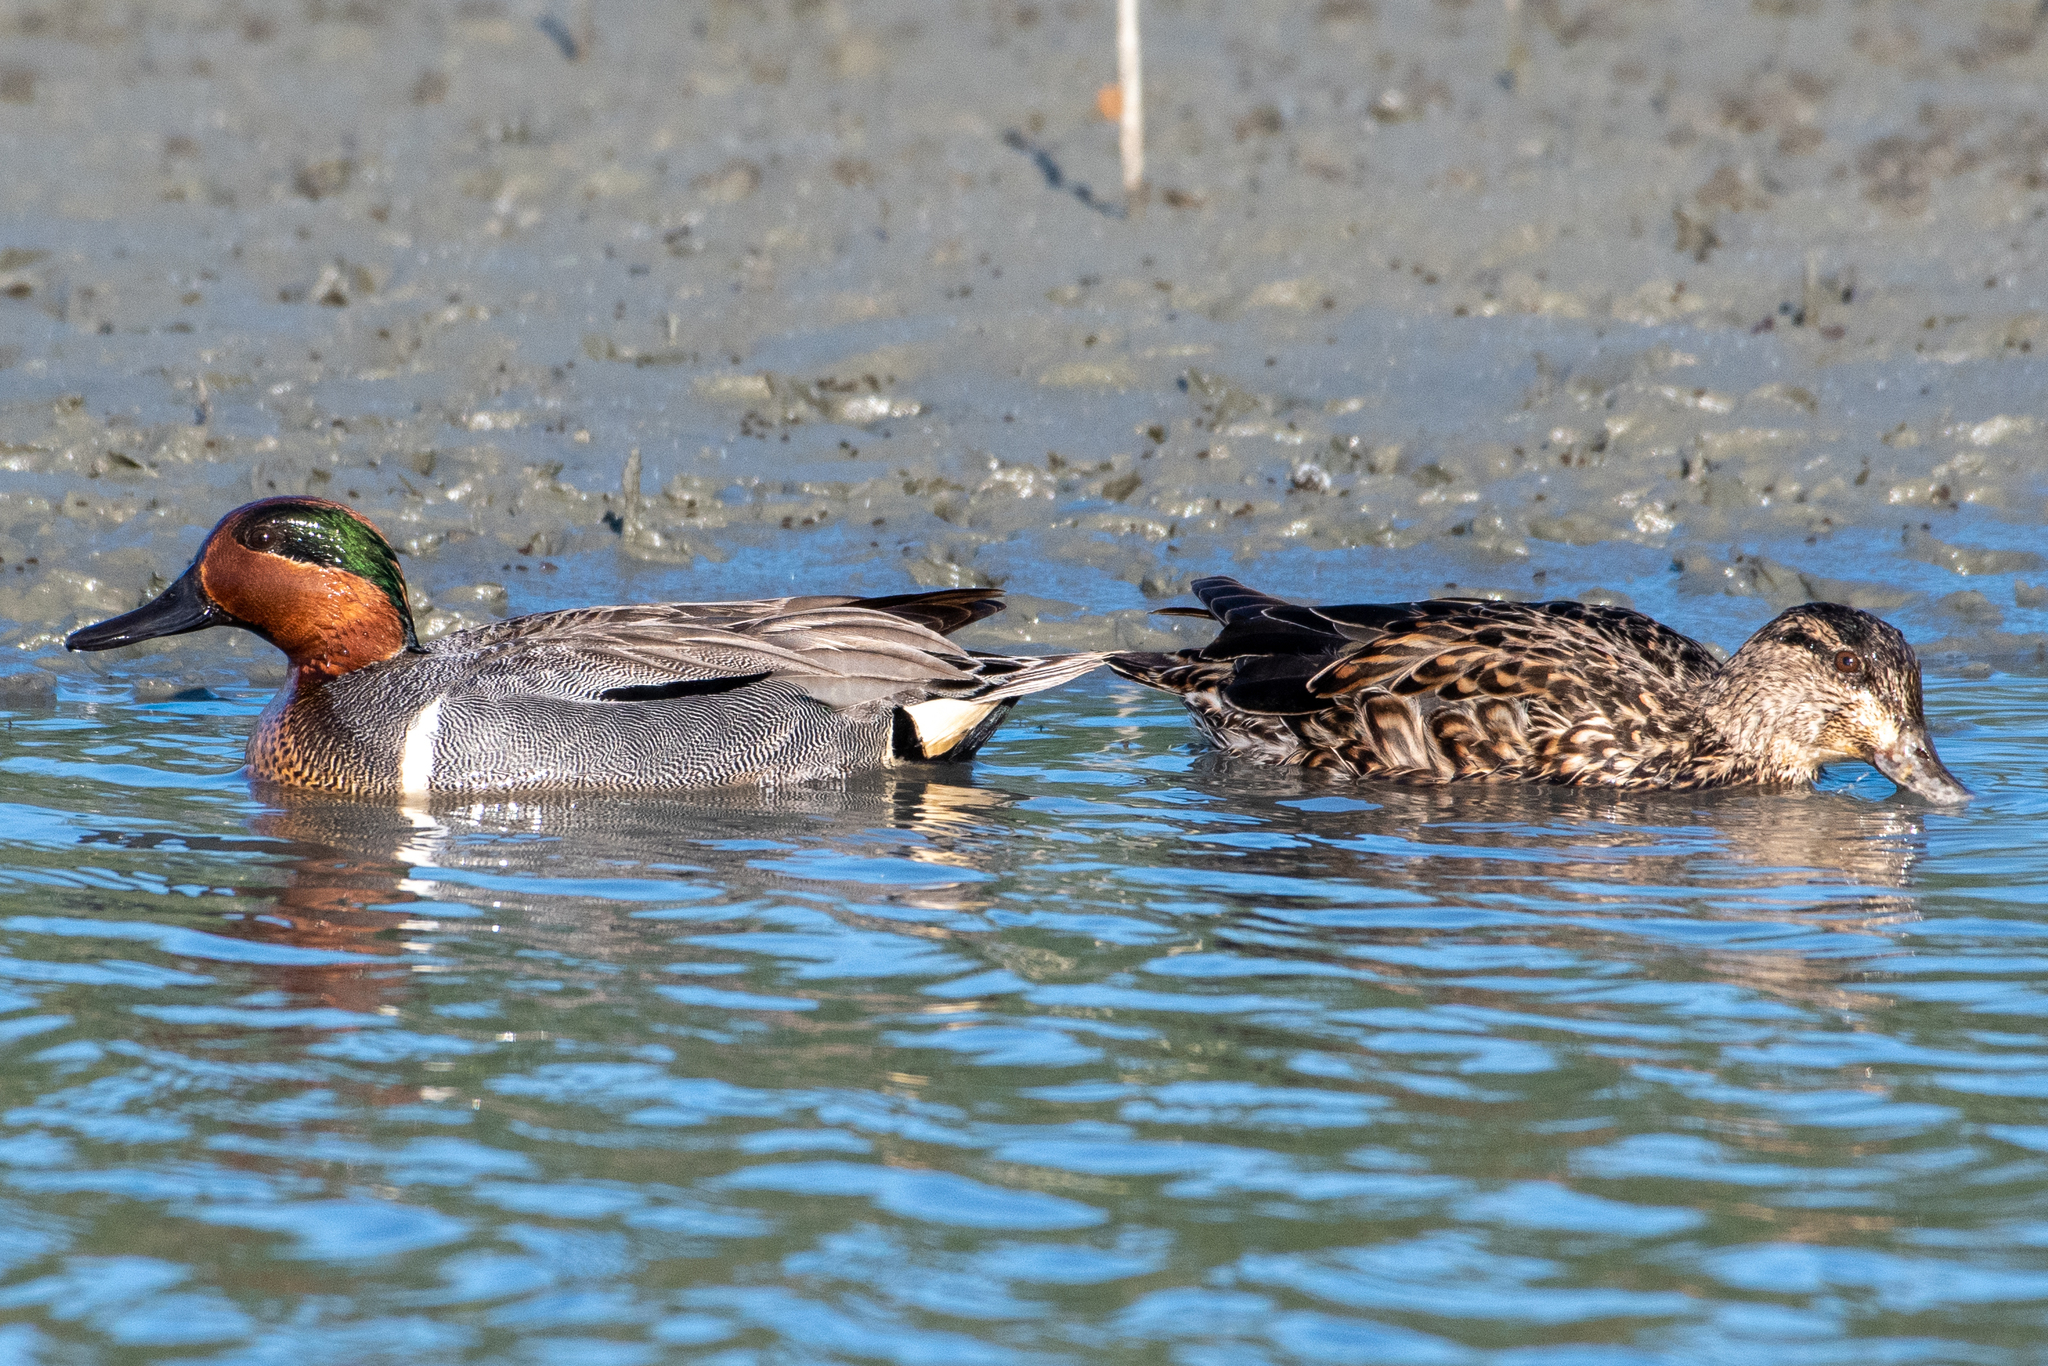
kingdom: Animalia
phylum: Chordata
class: Aves
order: Anseriformes
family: Anatidae
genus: Anas
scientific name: Anas crecca
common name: Eurasian teal
